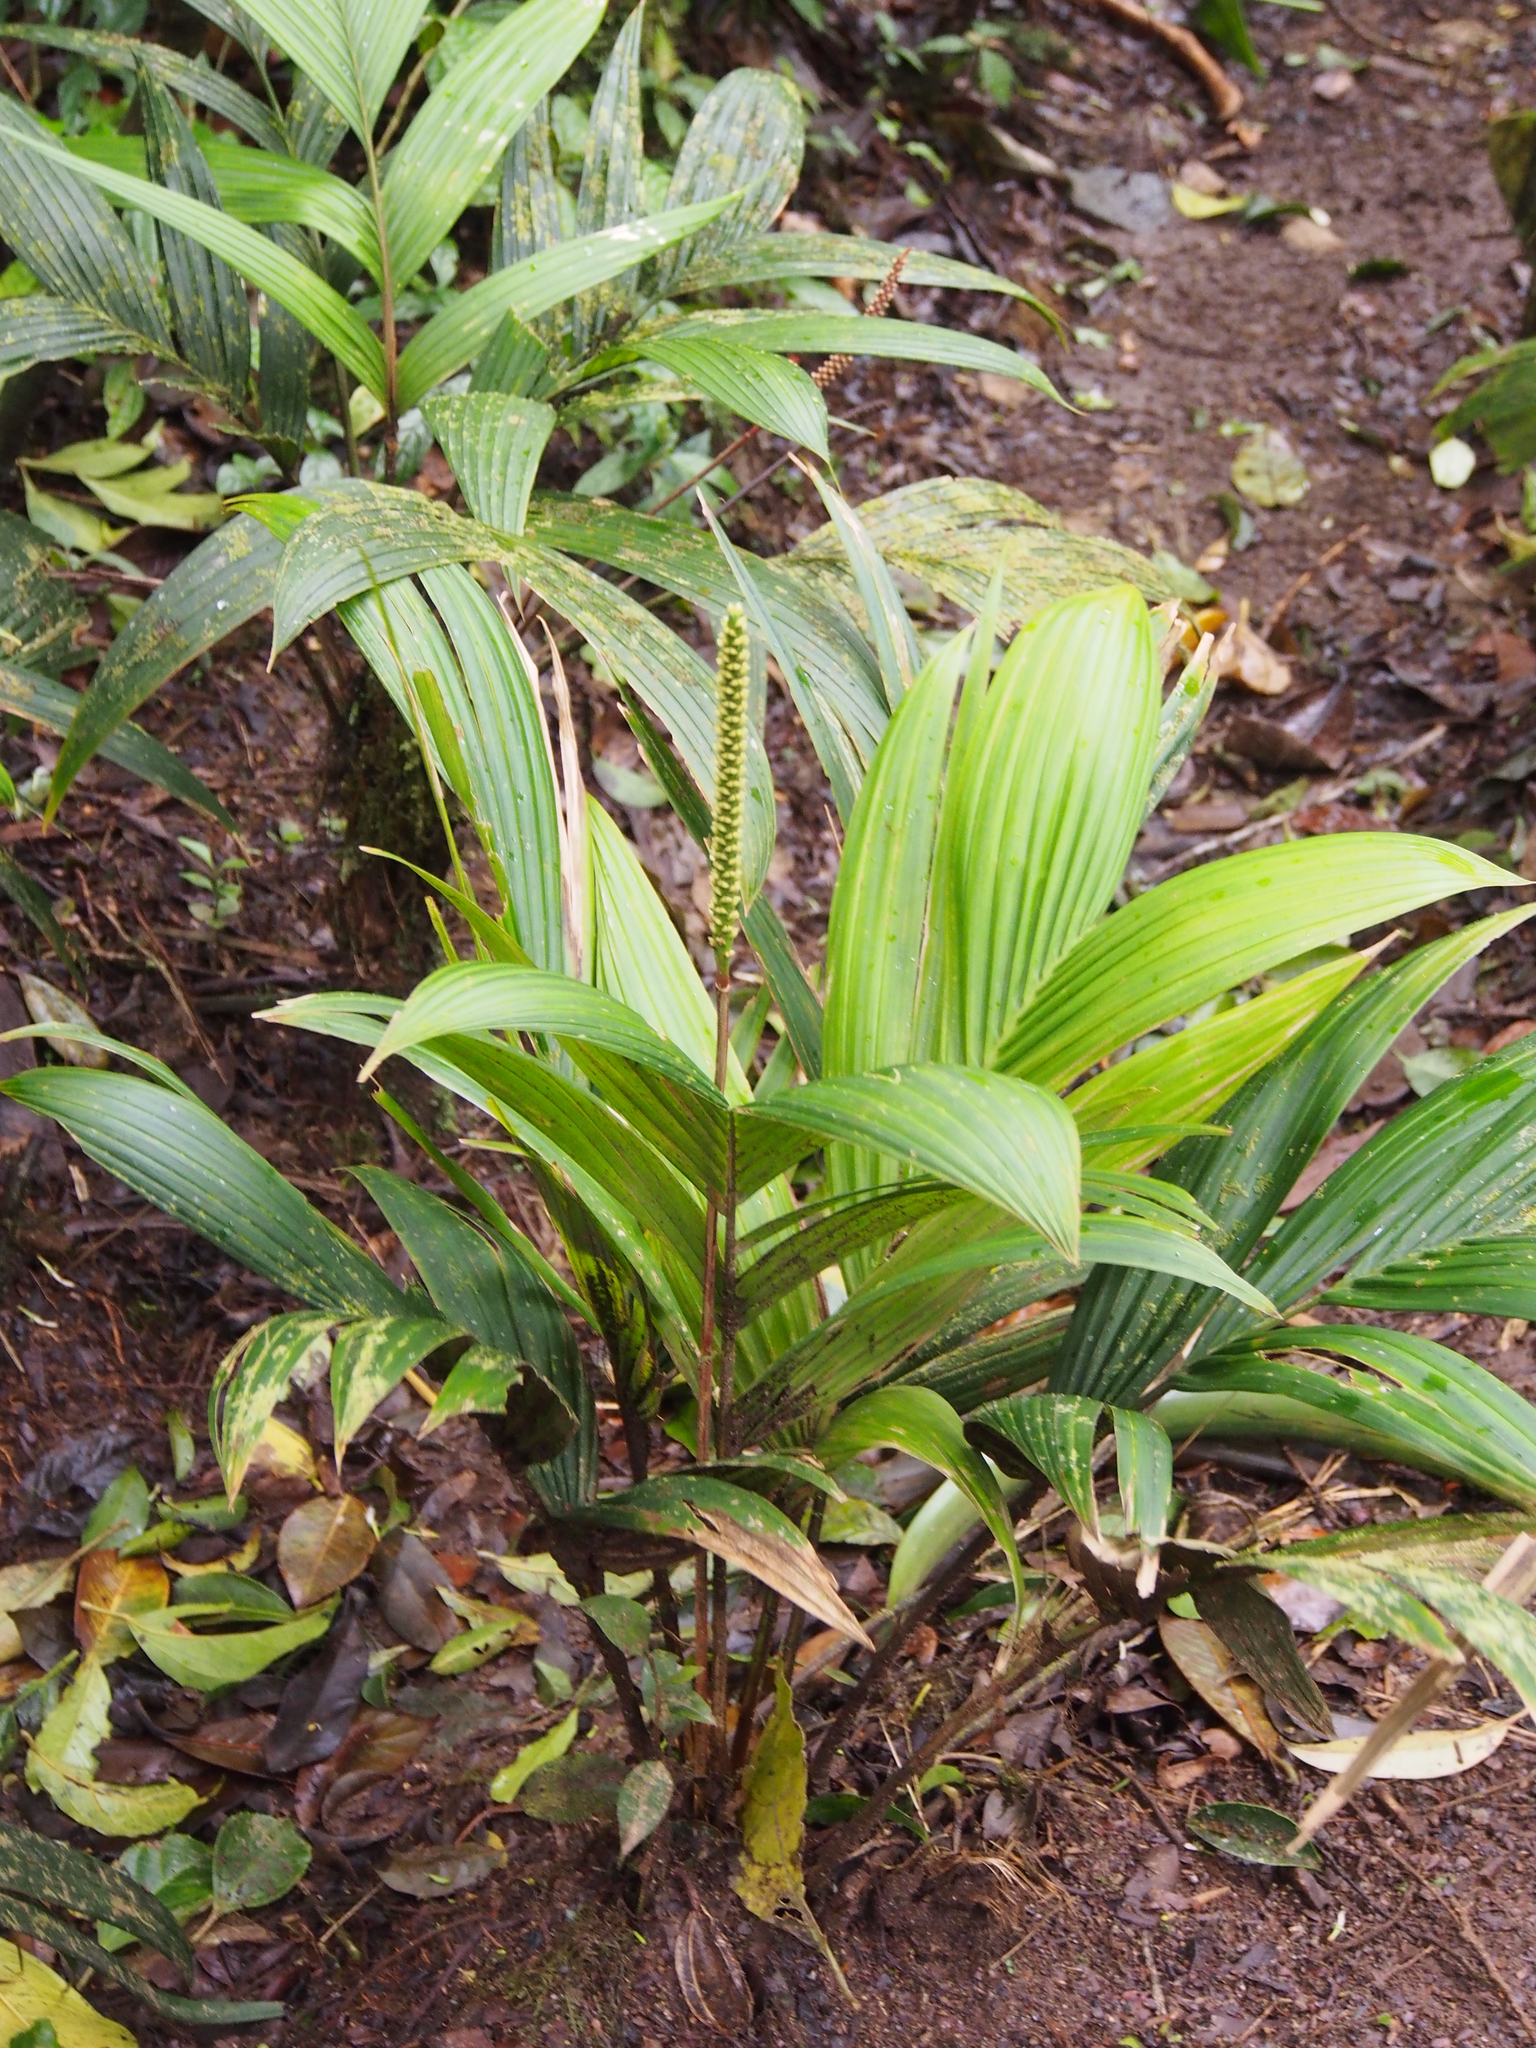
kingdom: Plantae
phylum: Tracheophyta
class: Liliopsida
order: Arecales
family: Arecaceae
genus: Calyptrogyne
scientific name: Calyptrogyne ghiesbreghtiana
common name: Coligallo
